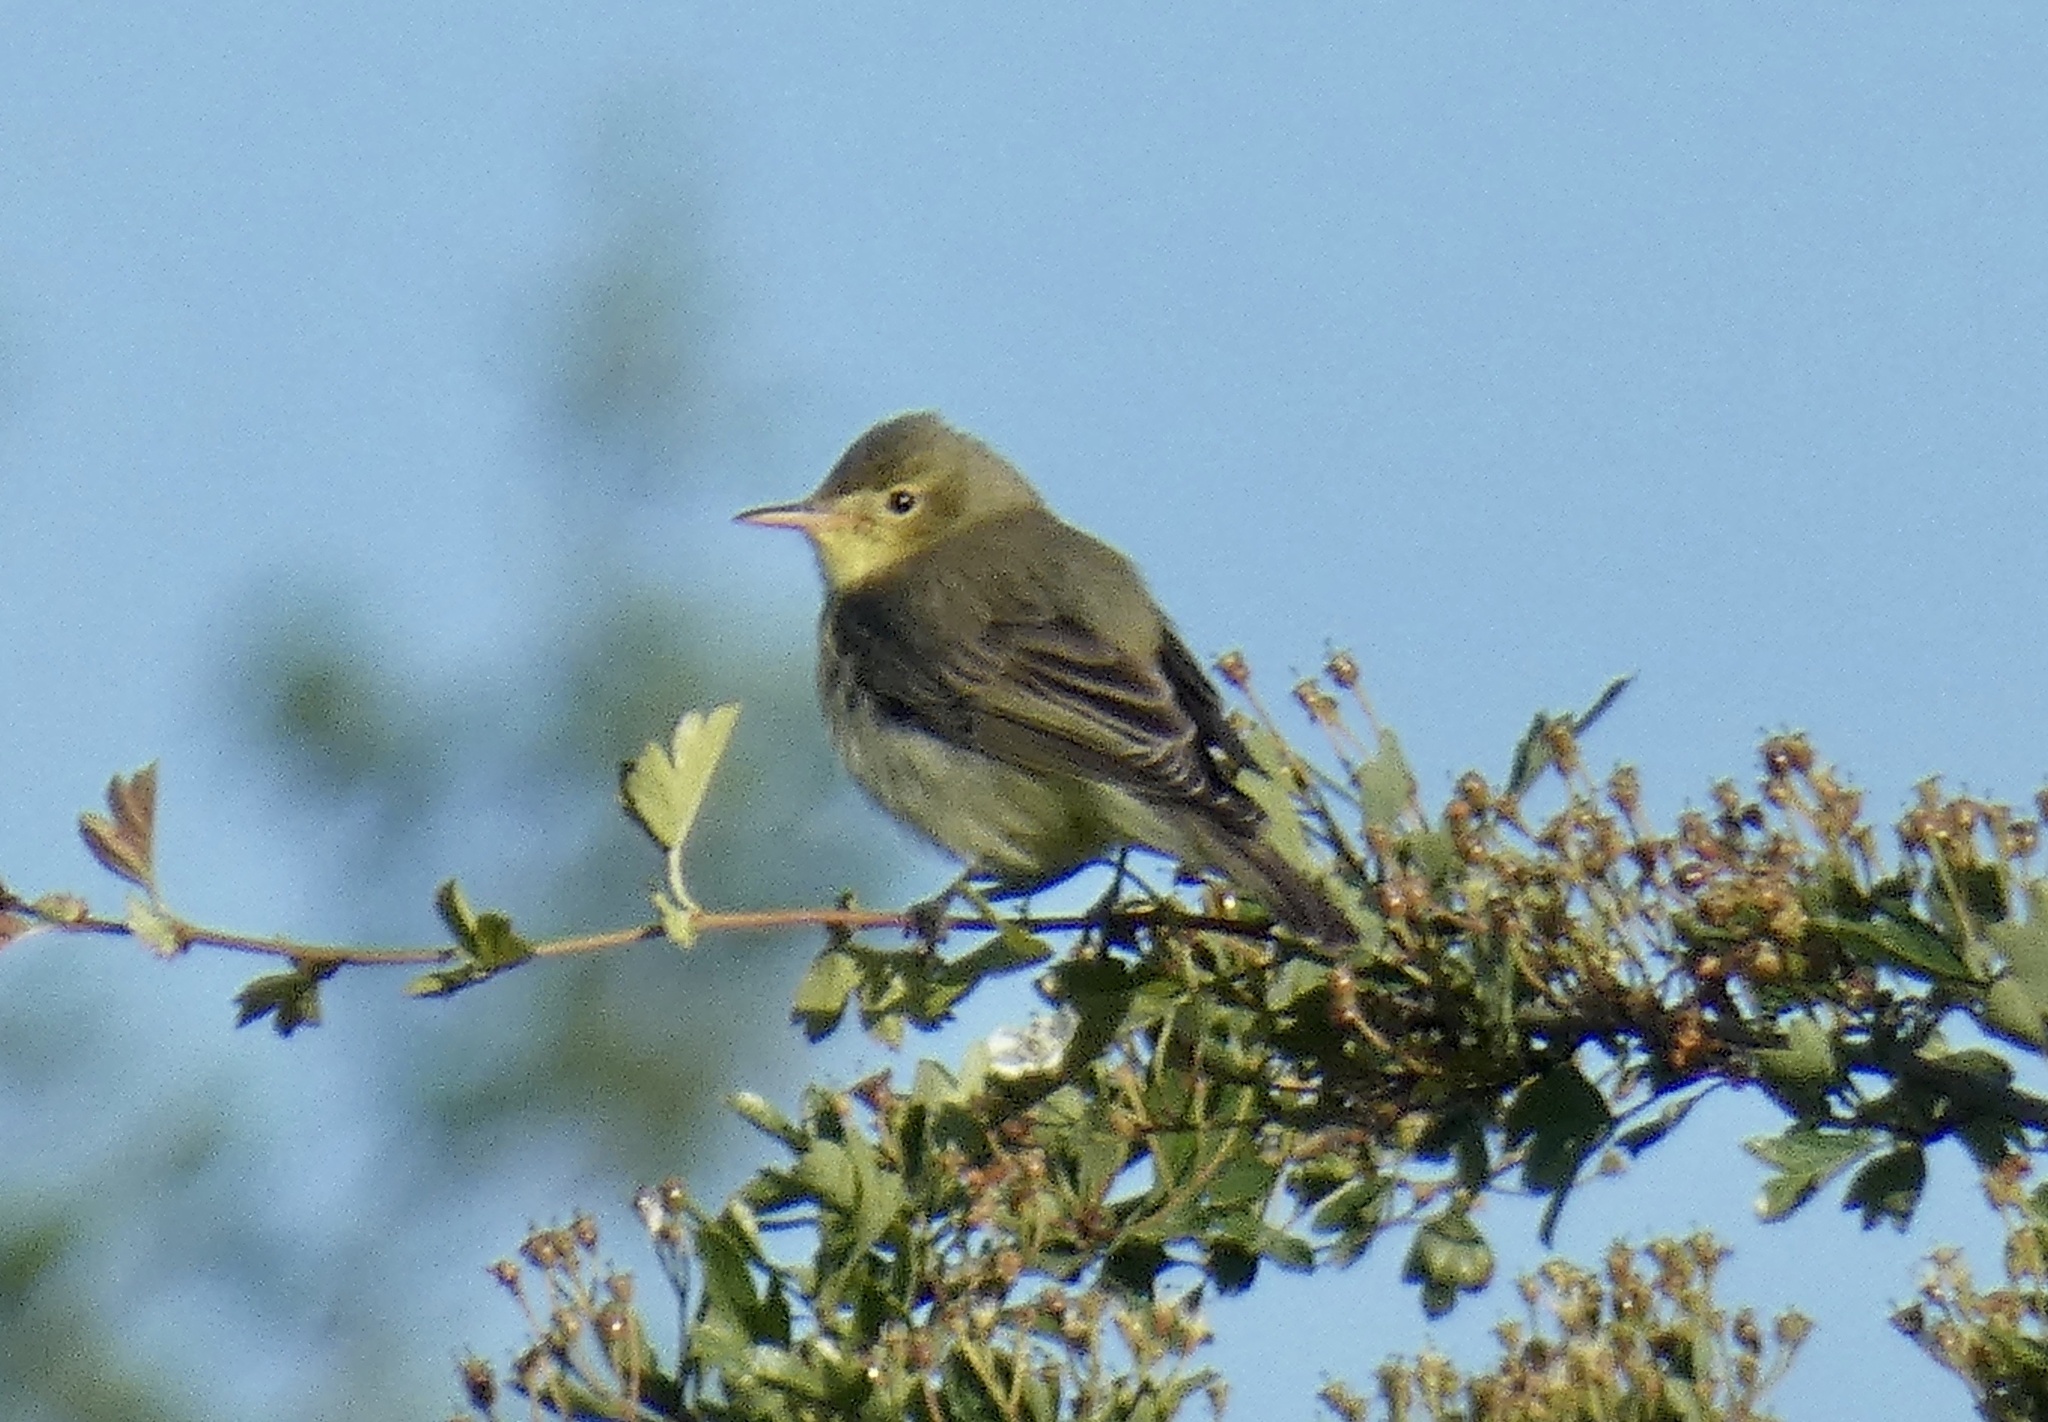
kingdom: Animalia
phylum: Chordata
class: Aves
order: Passeriformes
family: Acrocephalidae
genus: Hippolais
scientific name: Hippolais icterina
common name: Icterine warbler
